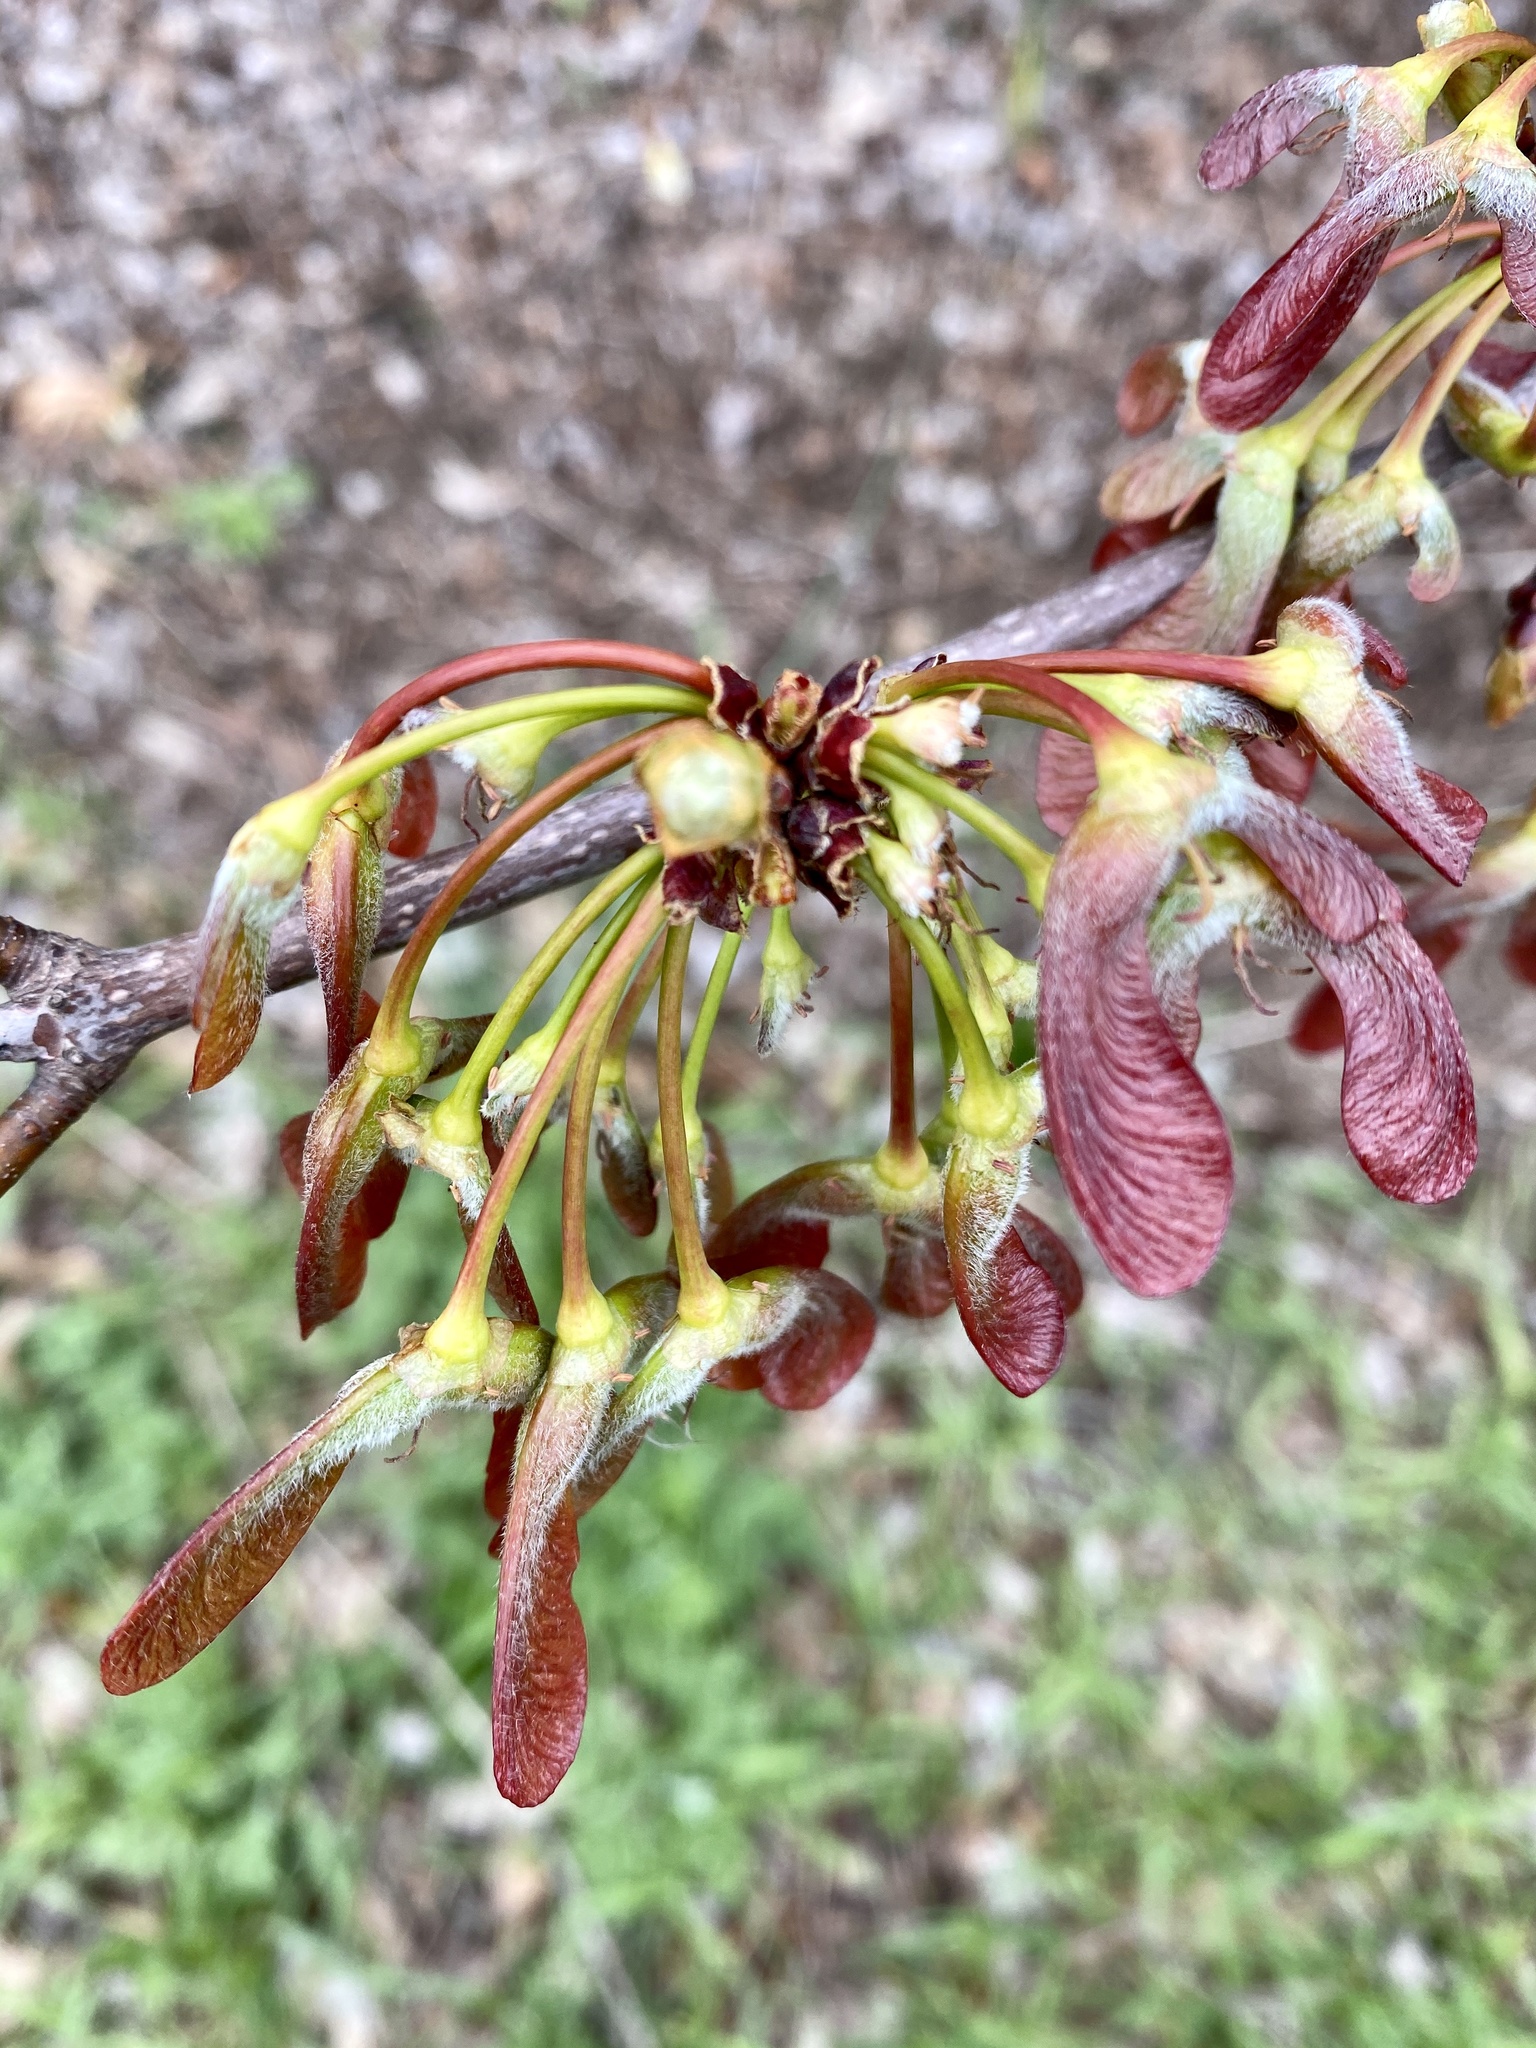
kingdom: Plantae
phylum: Tracheophyta
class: Magnoliopsida
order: Sapindales
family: Sapindaceae
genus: Acer
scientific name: Acer rubrum
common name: Red maple
